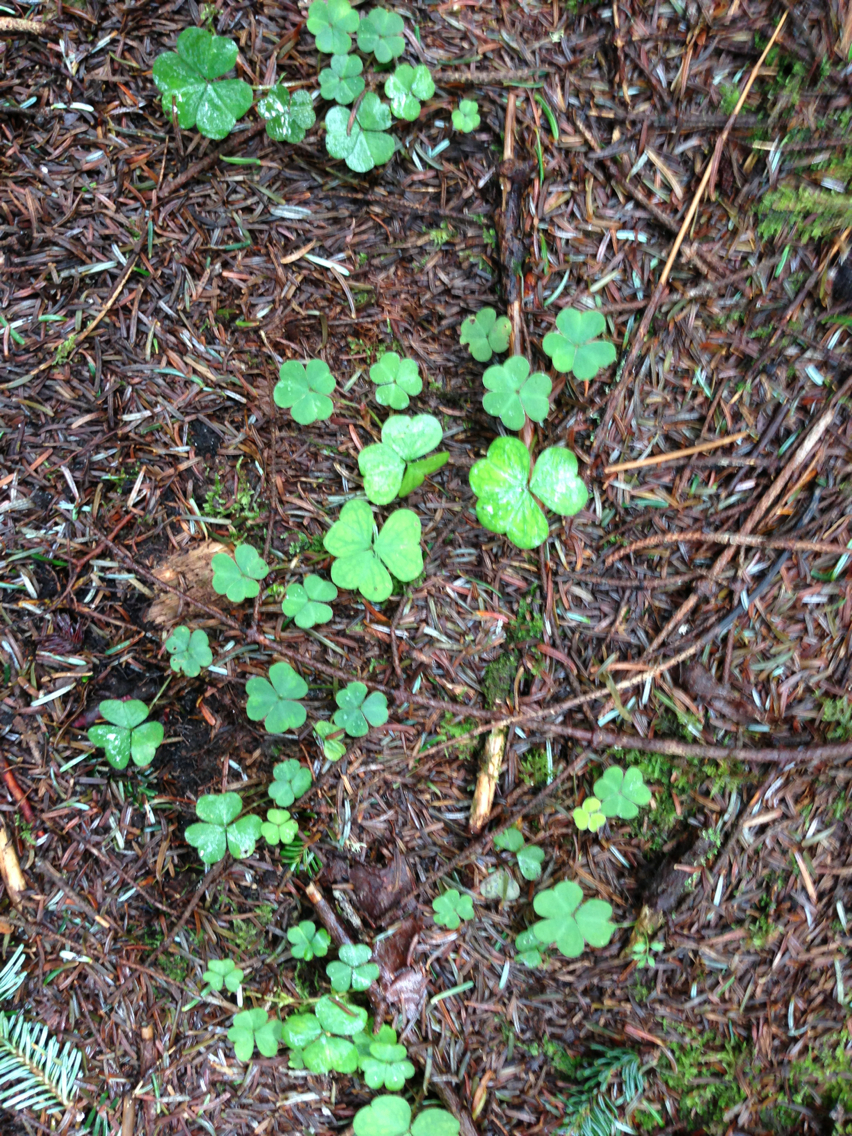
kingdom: Plantae
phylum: Tracheophyta
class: Magnoliopsida
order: Oxalidales
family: Oxalidaceae
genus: Oxalis
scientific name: Oxalis montana
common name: American wood-sorrel
